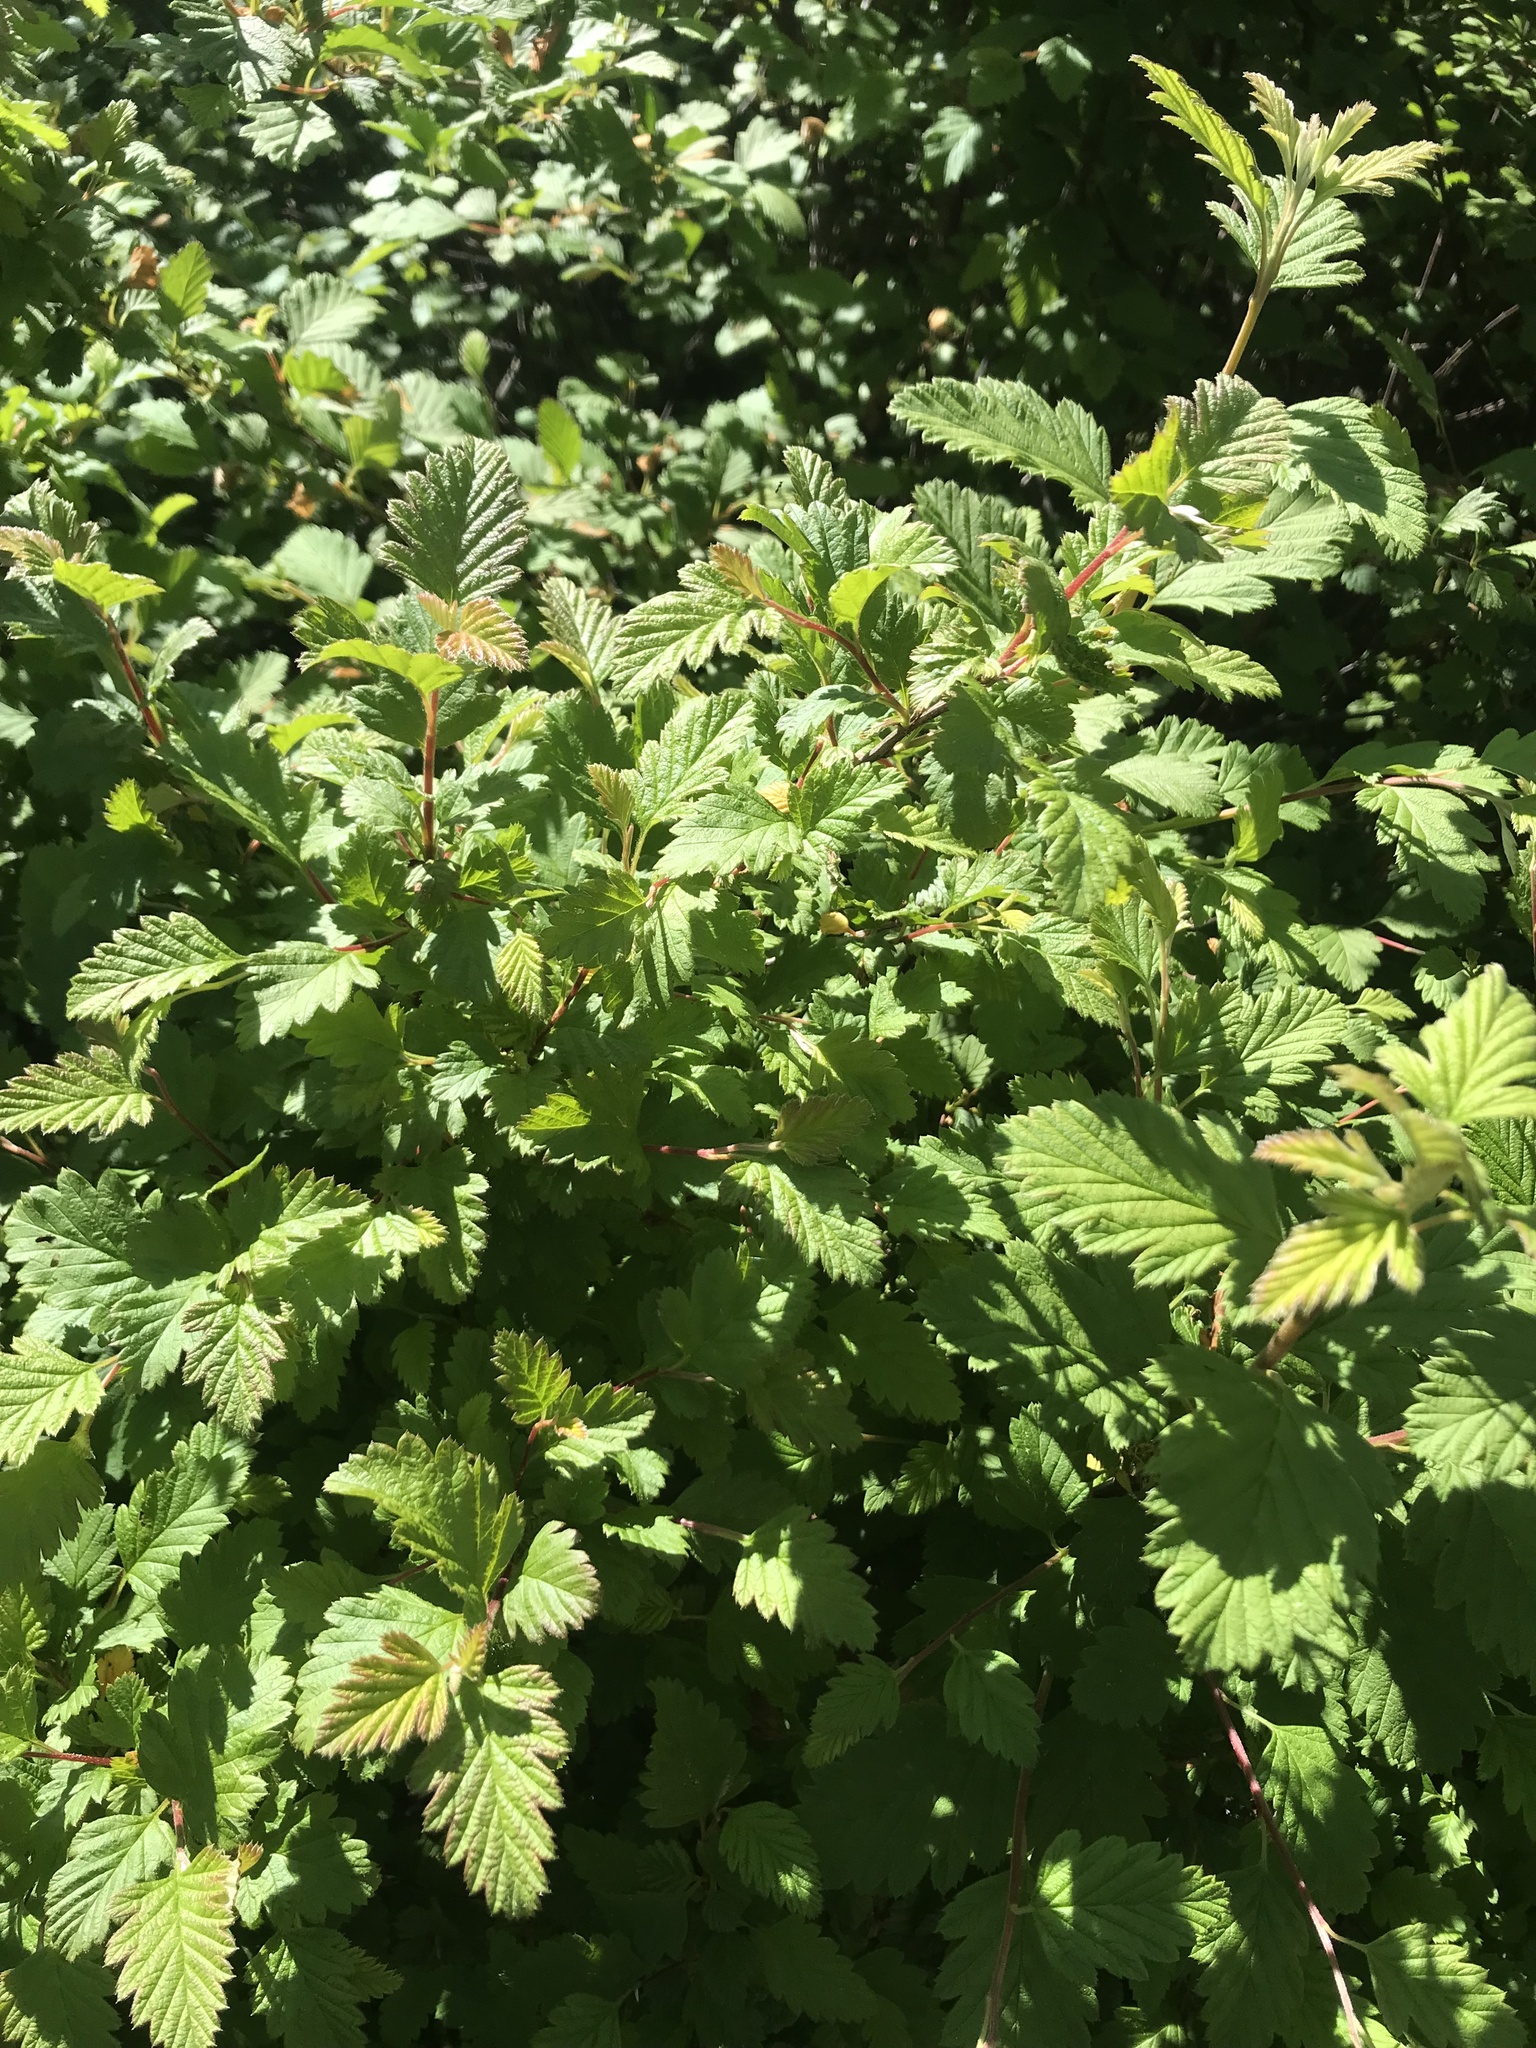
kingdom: Plantae
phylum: Tracheophyta
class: Magnoliopsida
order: Rosales
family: Rosaceae
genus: Holodiscus
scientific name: Holodiscus discolor
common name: Oceanspray
